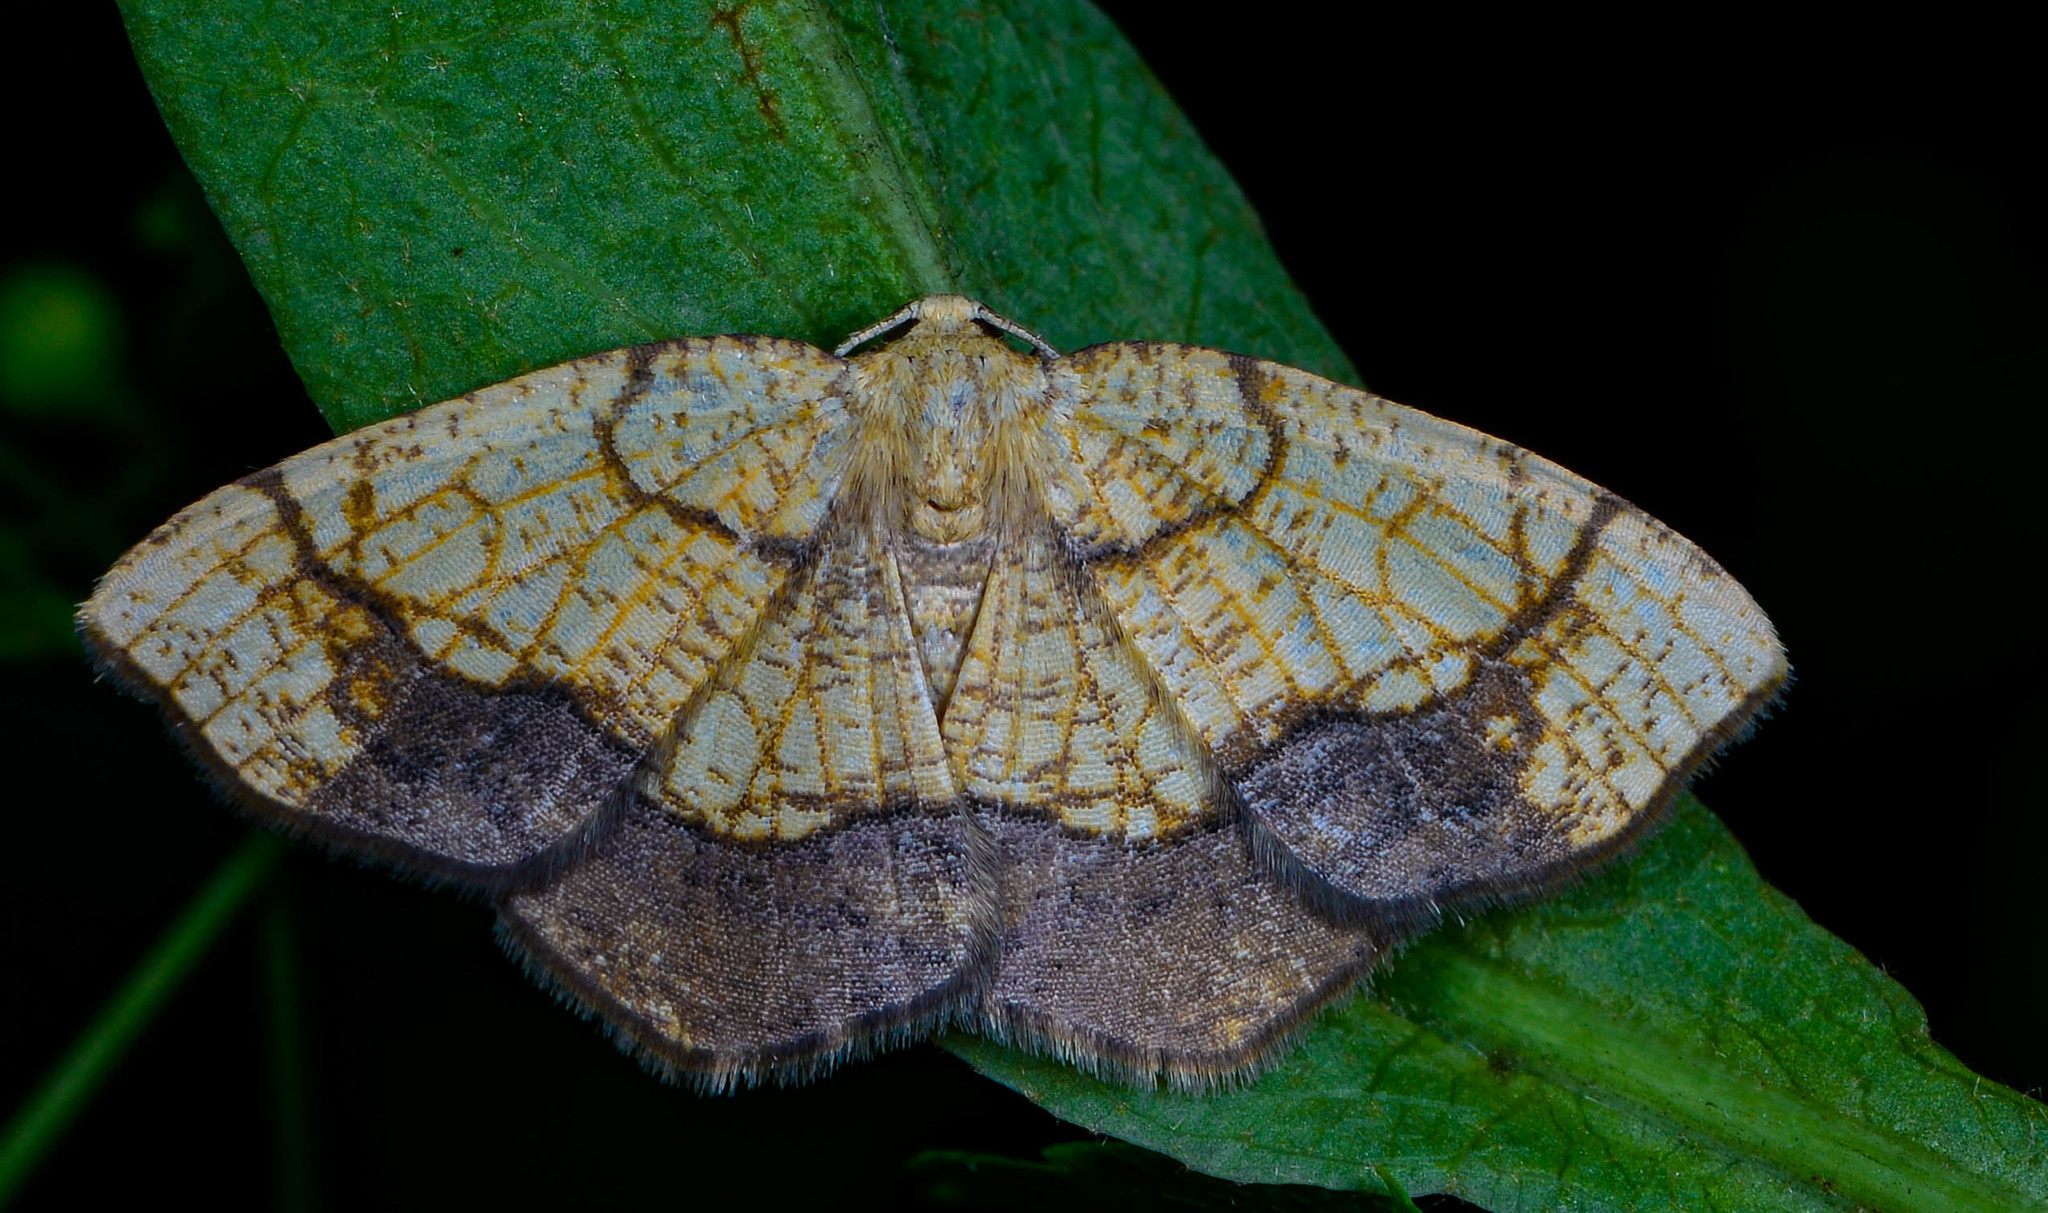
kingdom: Animalia
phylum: Arthropoda
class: Insecta
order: Lepidoptera
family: Geometridae
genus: Nematocampa
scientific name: Nematocampa resistaria
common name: Horned spanworm moth
